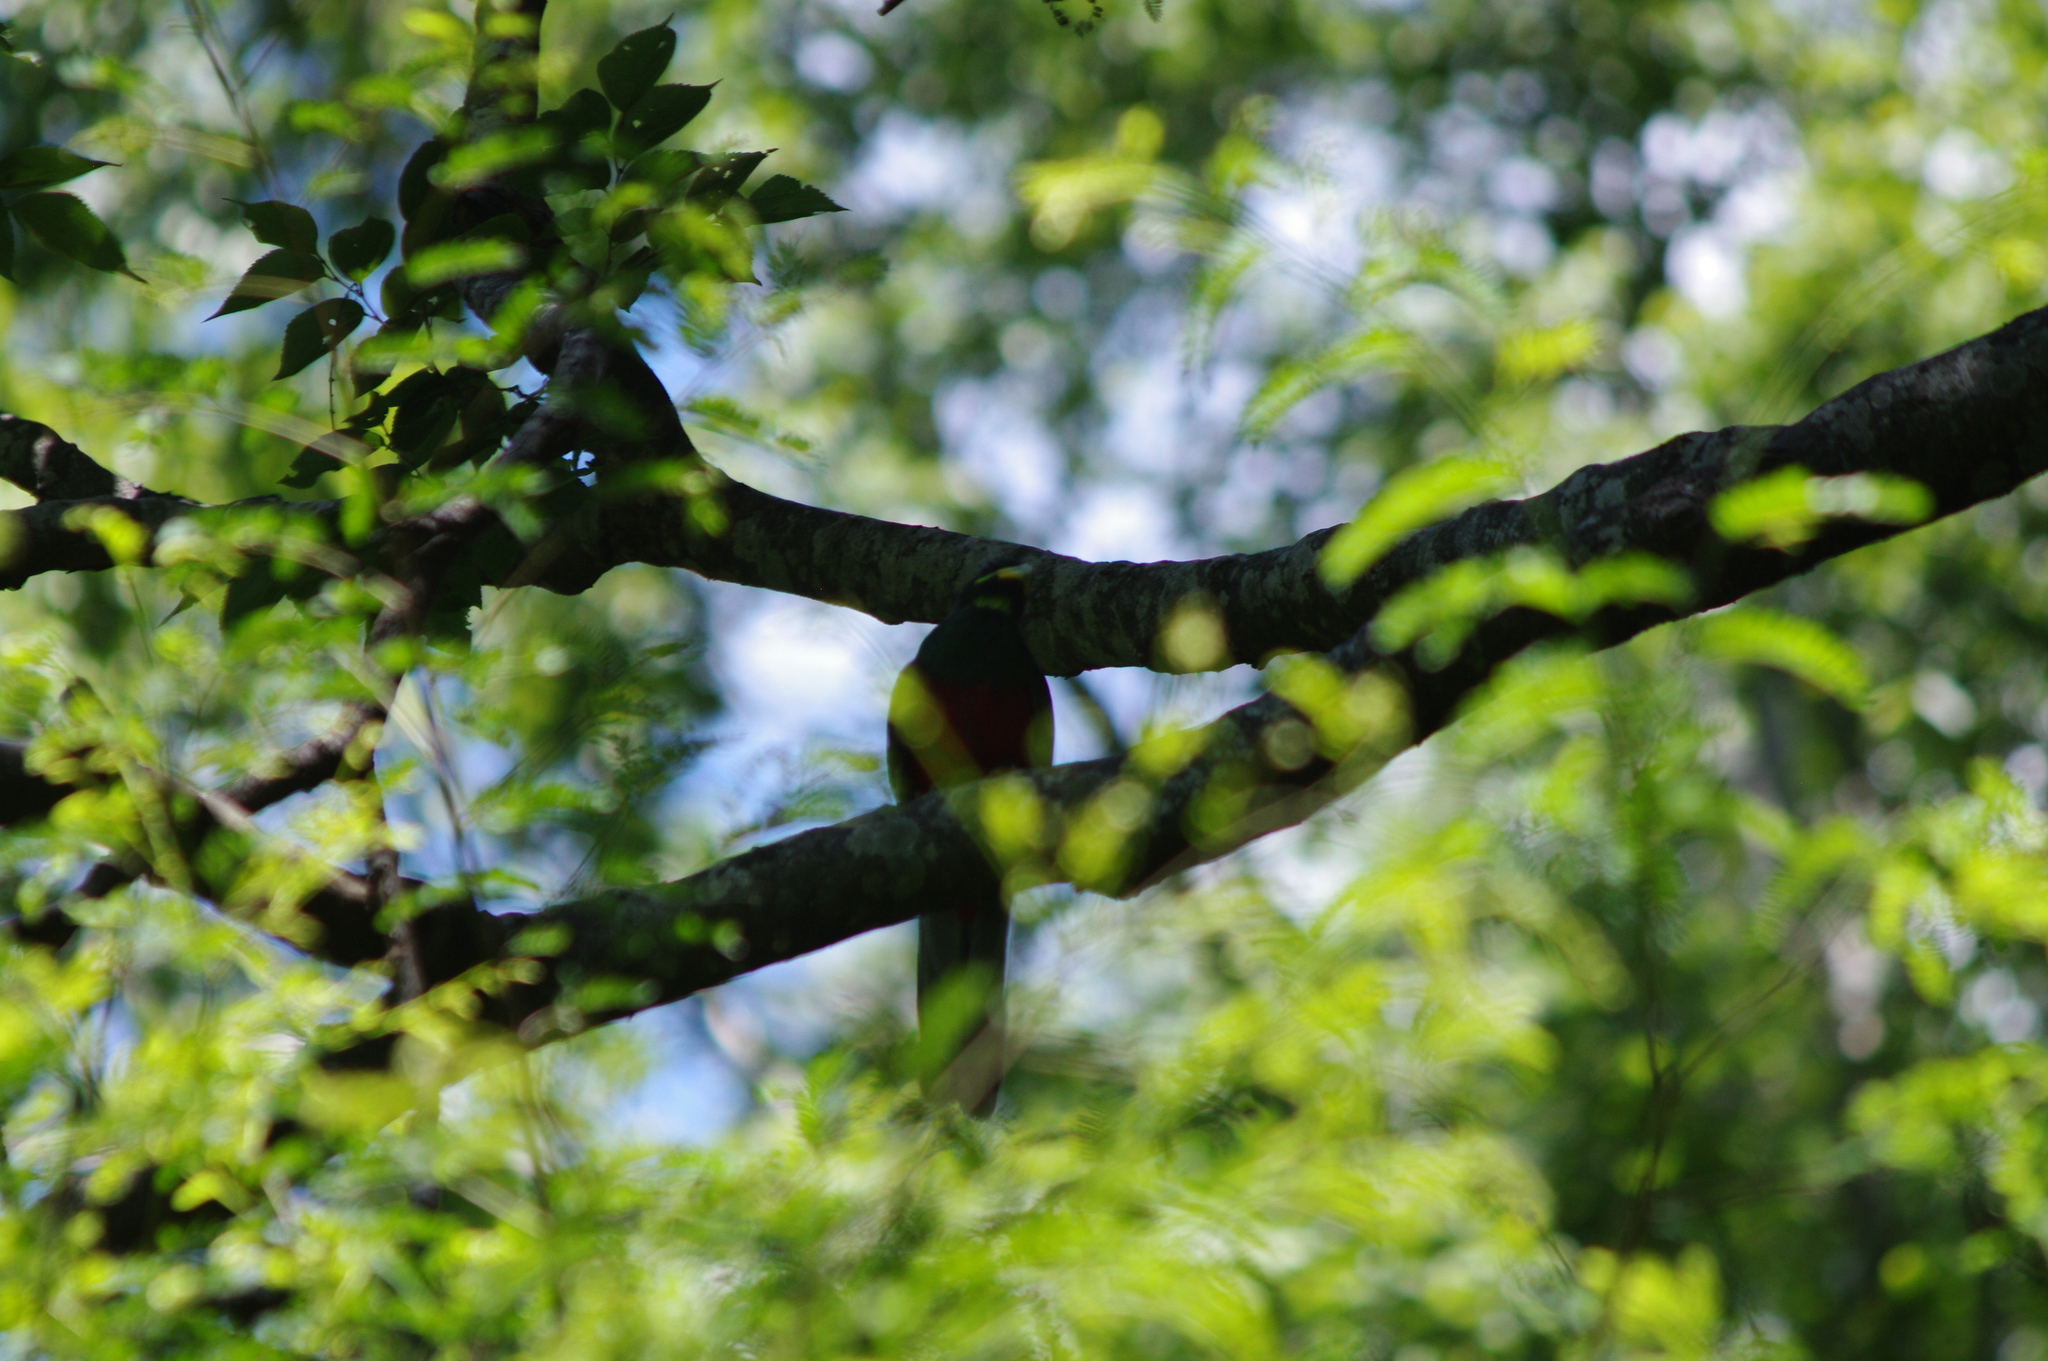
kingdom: Animalia
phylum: Chordata
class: Aves
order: Trogoniformes
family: Trogonidae
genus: Apaloderma
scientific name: Apaloderma narina
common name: Narina trogon
